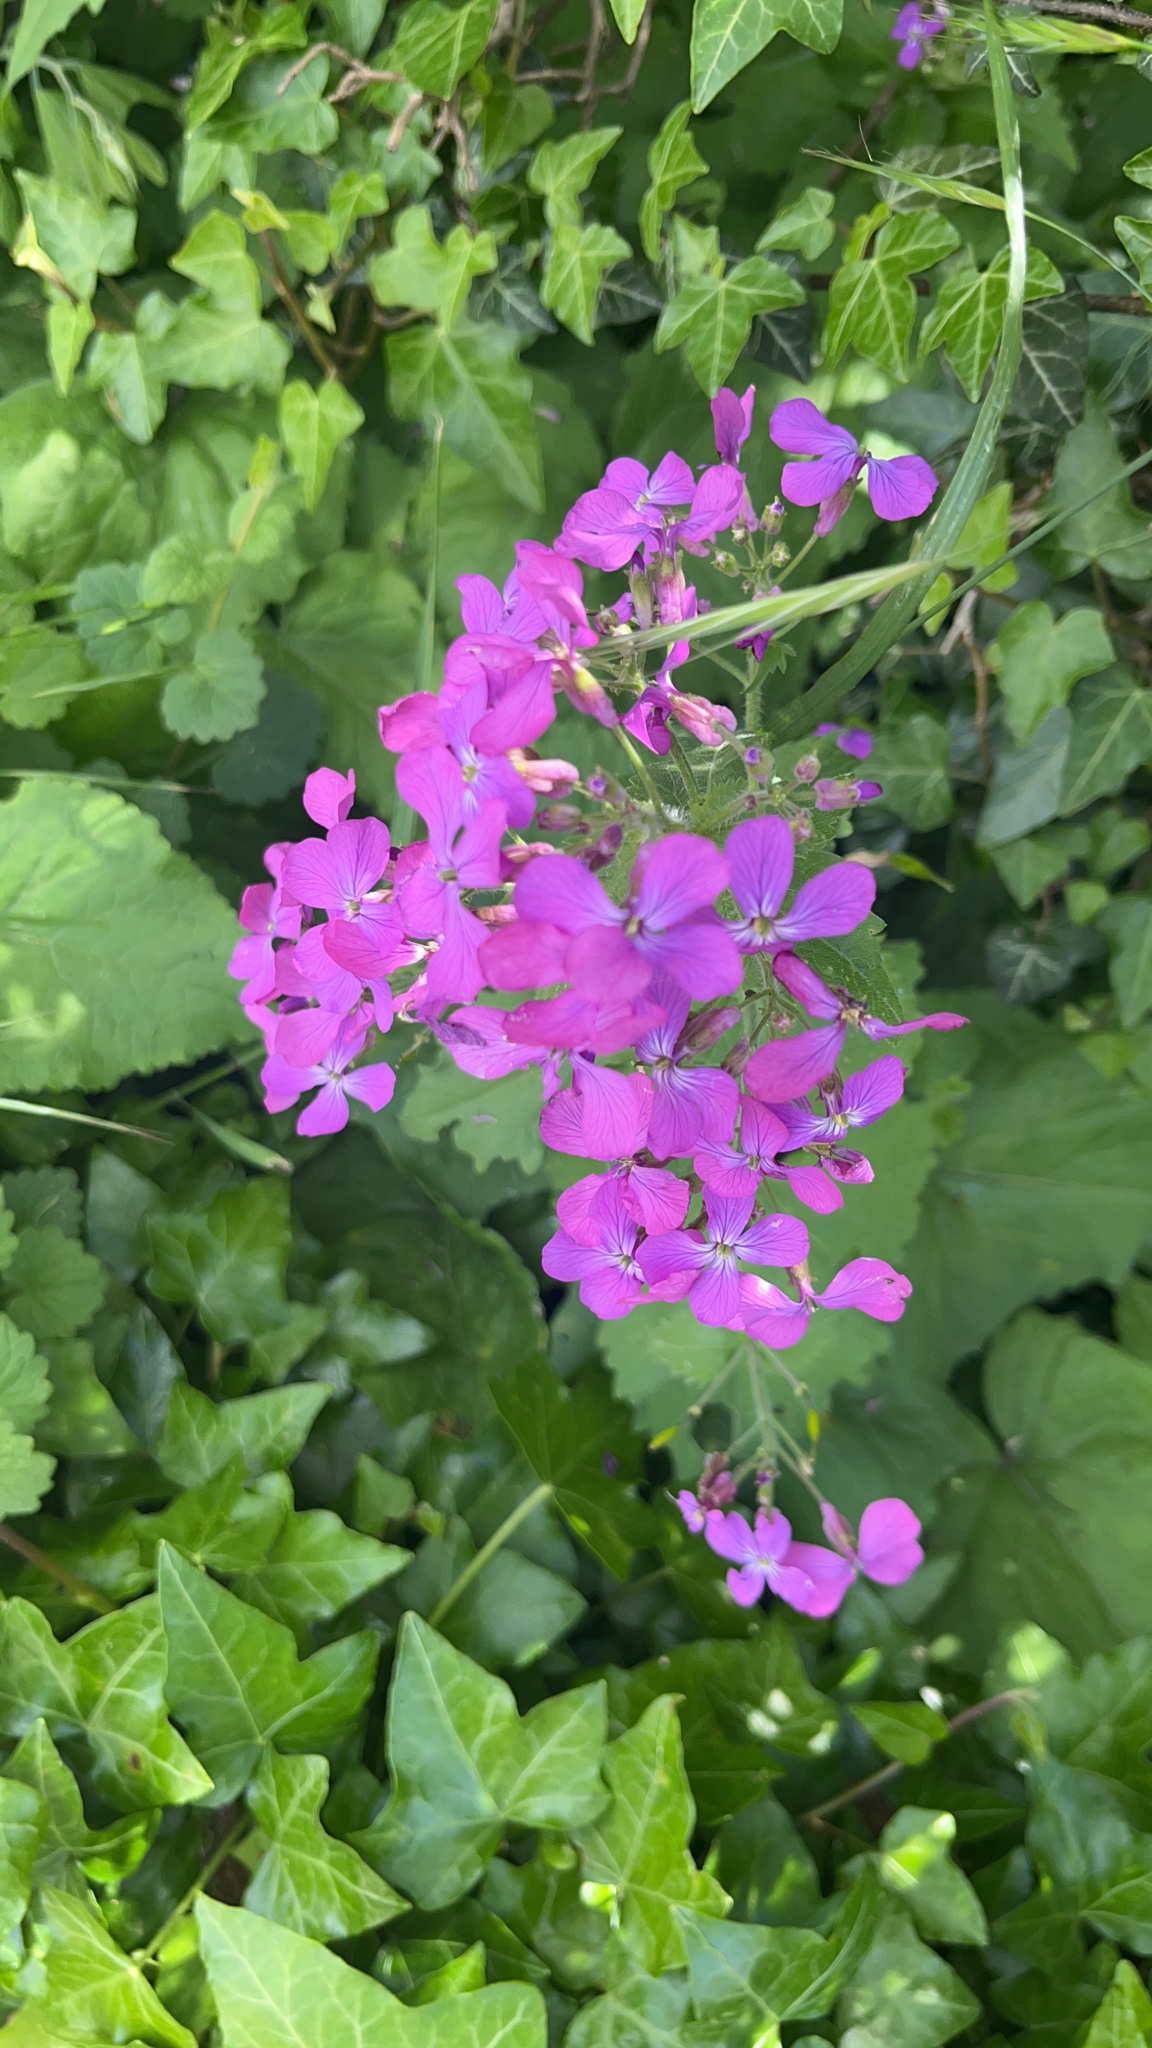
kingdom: Plantae
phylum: Tracheophyta
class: Magnoliopsida
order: Brassicales
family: Brassicaceae
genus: Lunaria
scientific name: Lunaria annua
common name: Honesty
